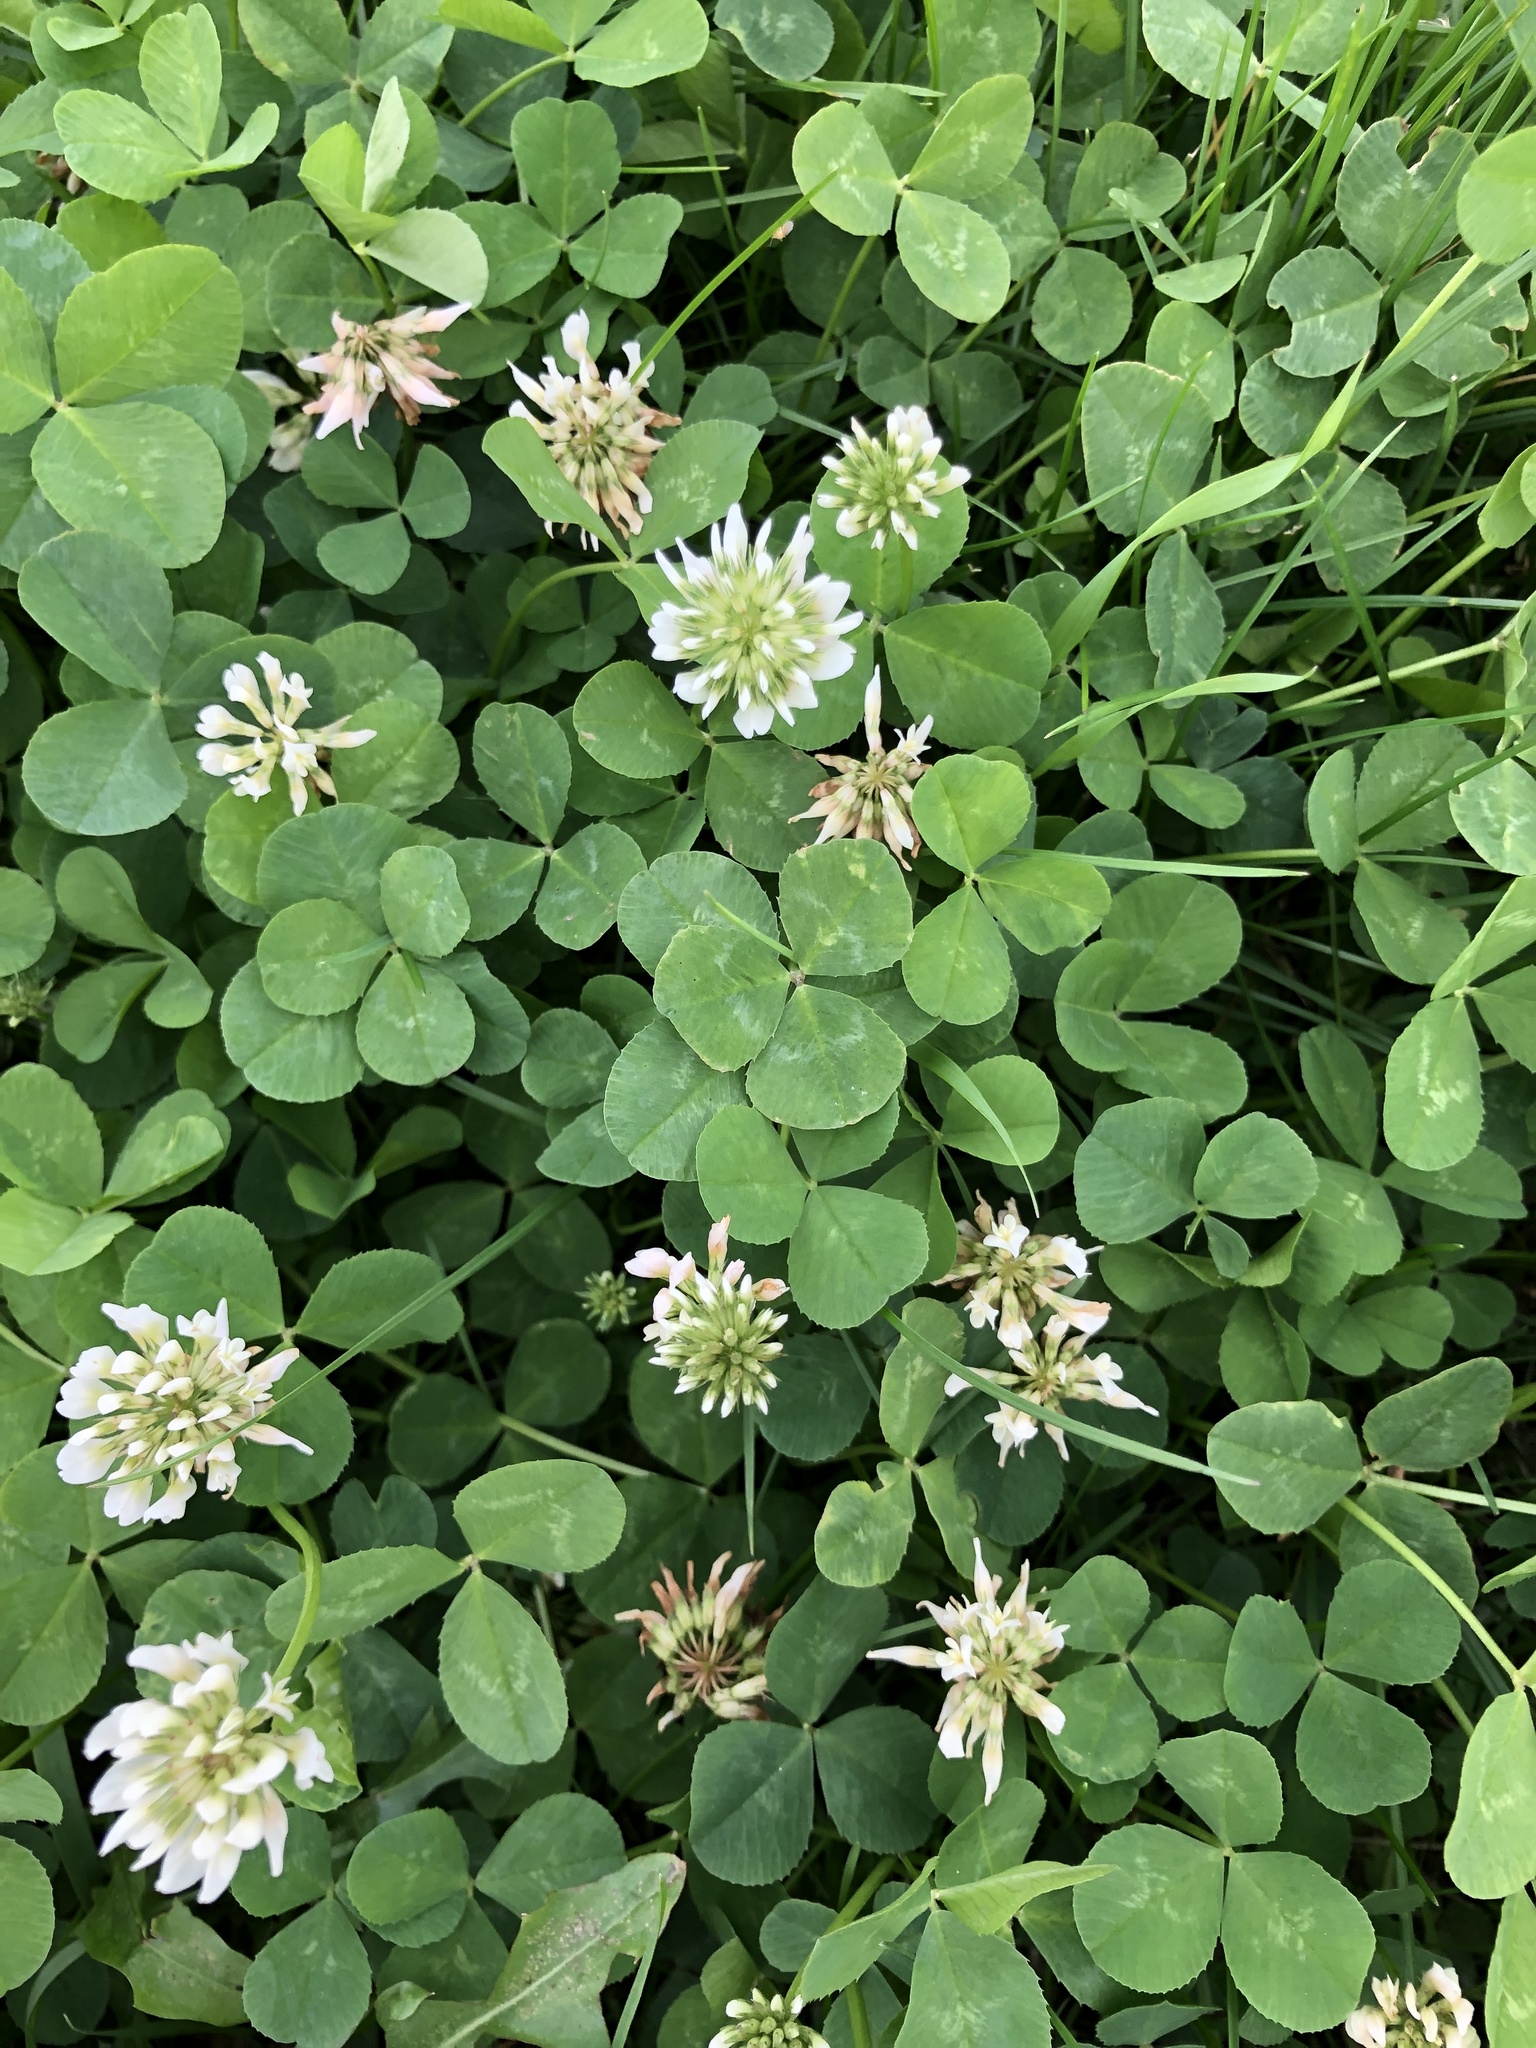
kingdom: Plantae
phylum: Tracheophyta
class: Magnoliopsida
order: Fabales
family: Fabaceae
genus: Trifolium
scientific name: Trifolium repens
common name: White clover
